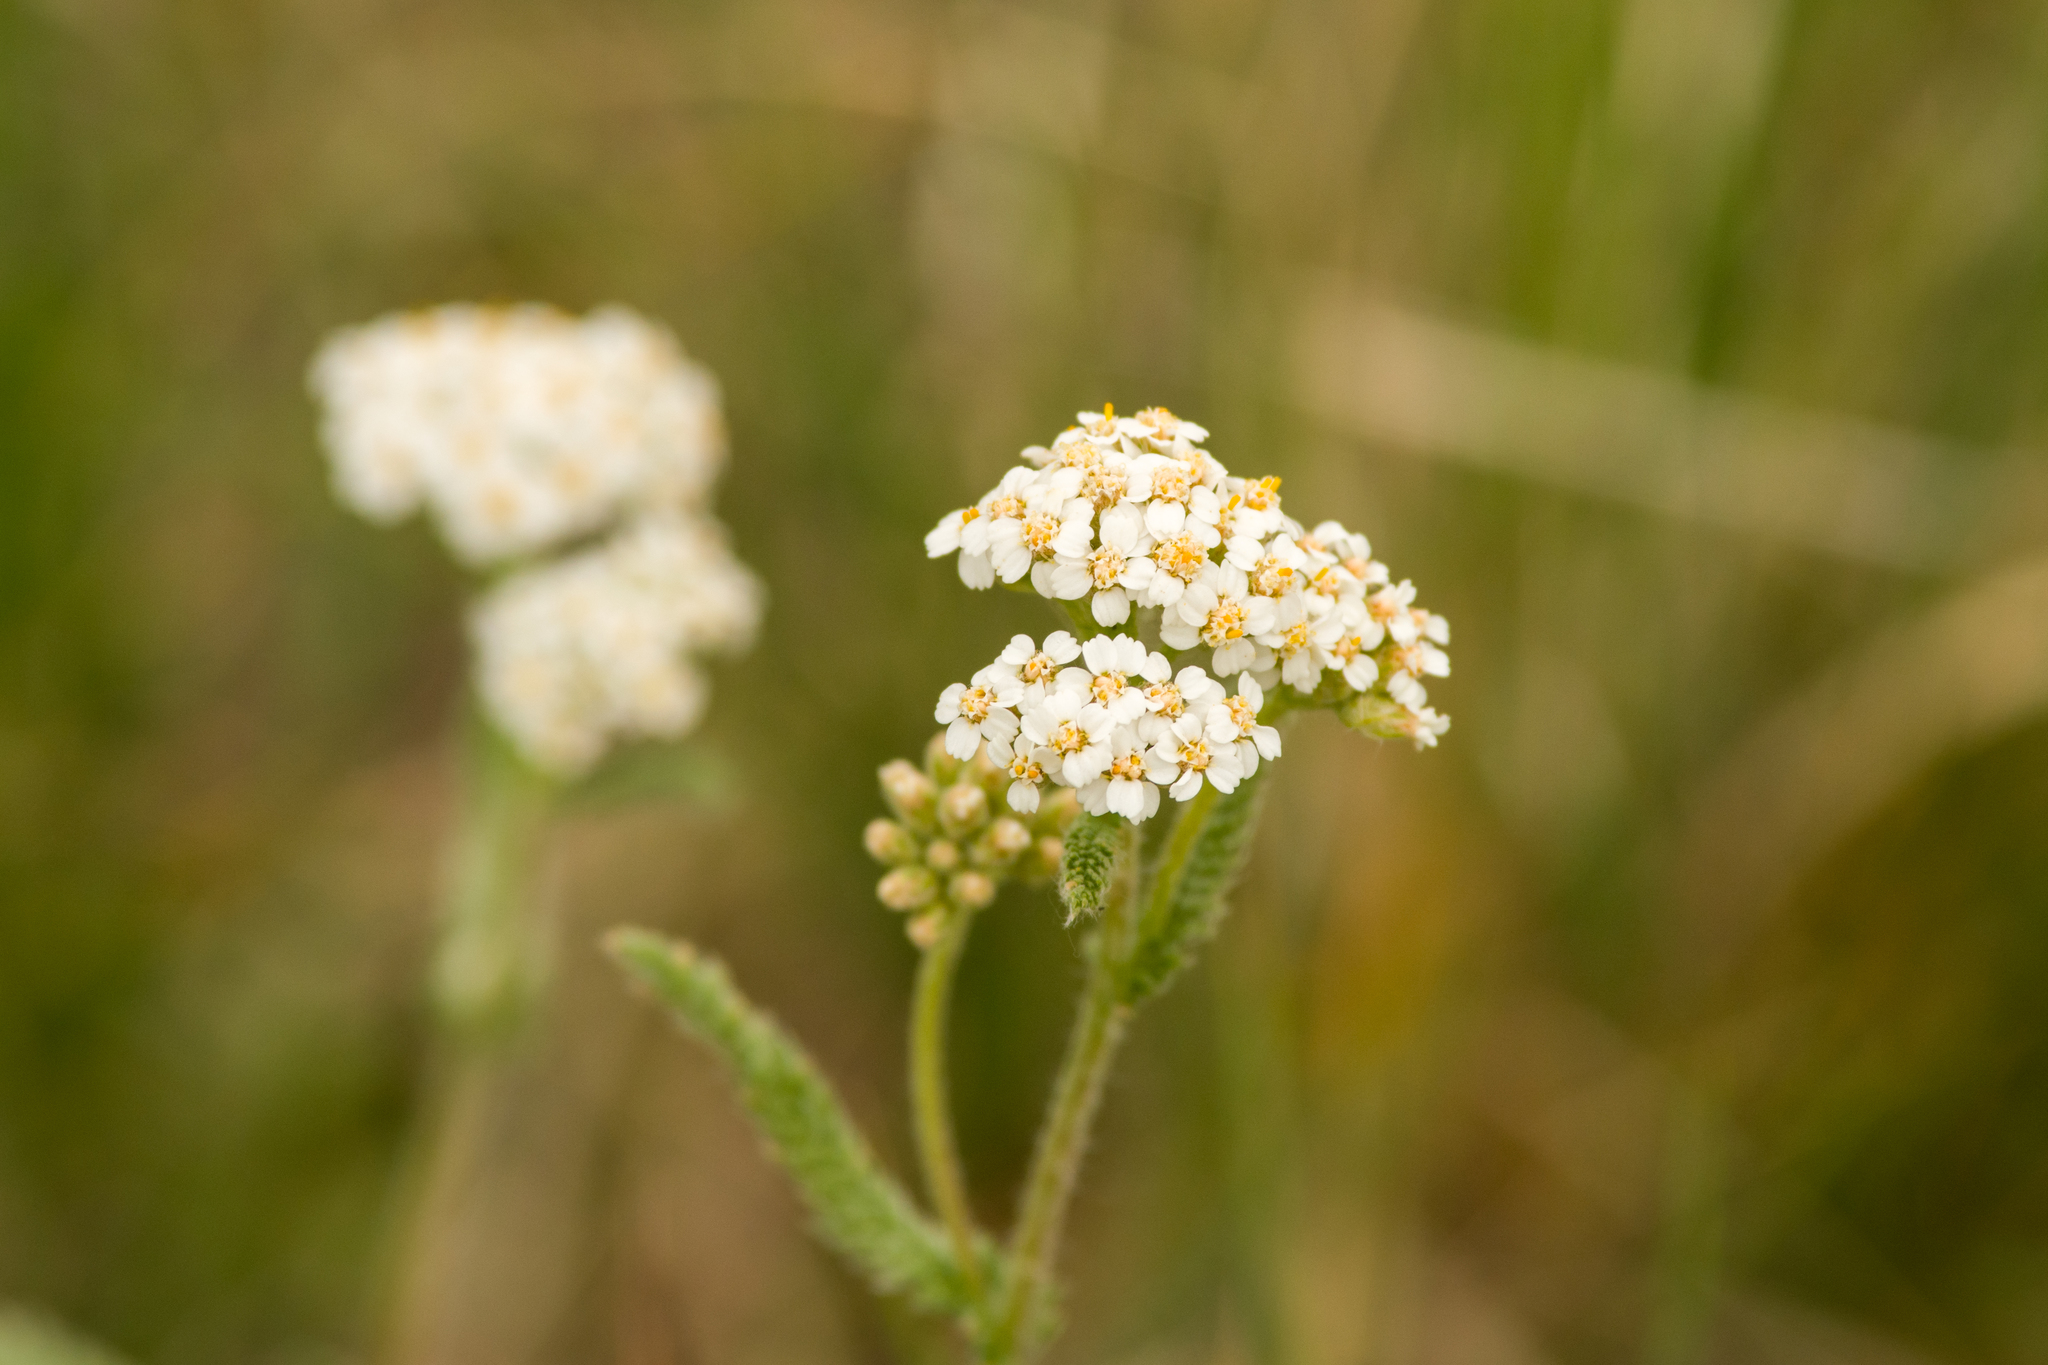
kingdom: Plantae
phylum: Tracheophyta
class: Magnoliopsida
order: Asterales
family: Asteraceae
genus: Achillea
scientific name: Achillea millefolium
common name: Yarrow
